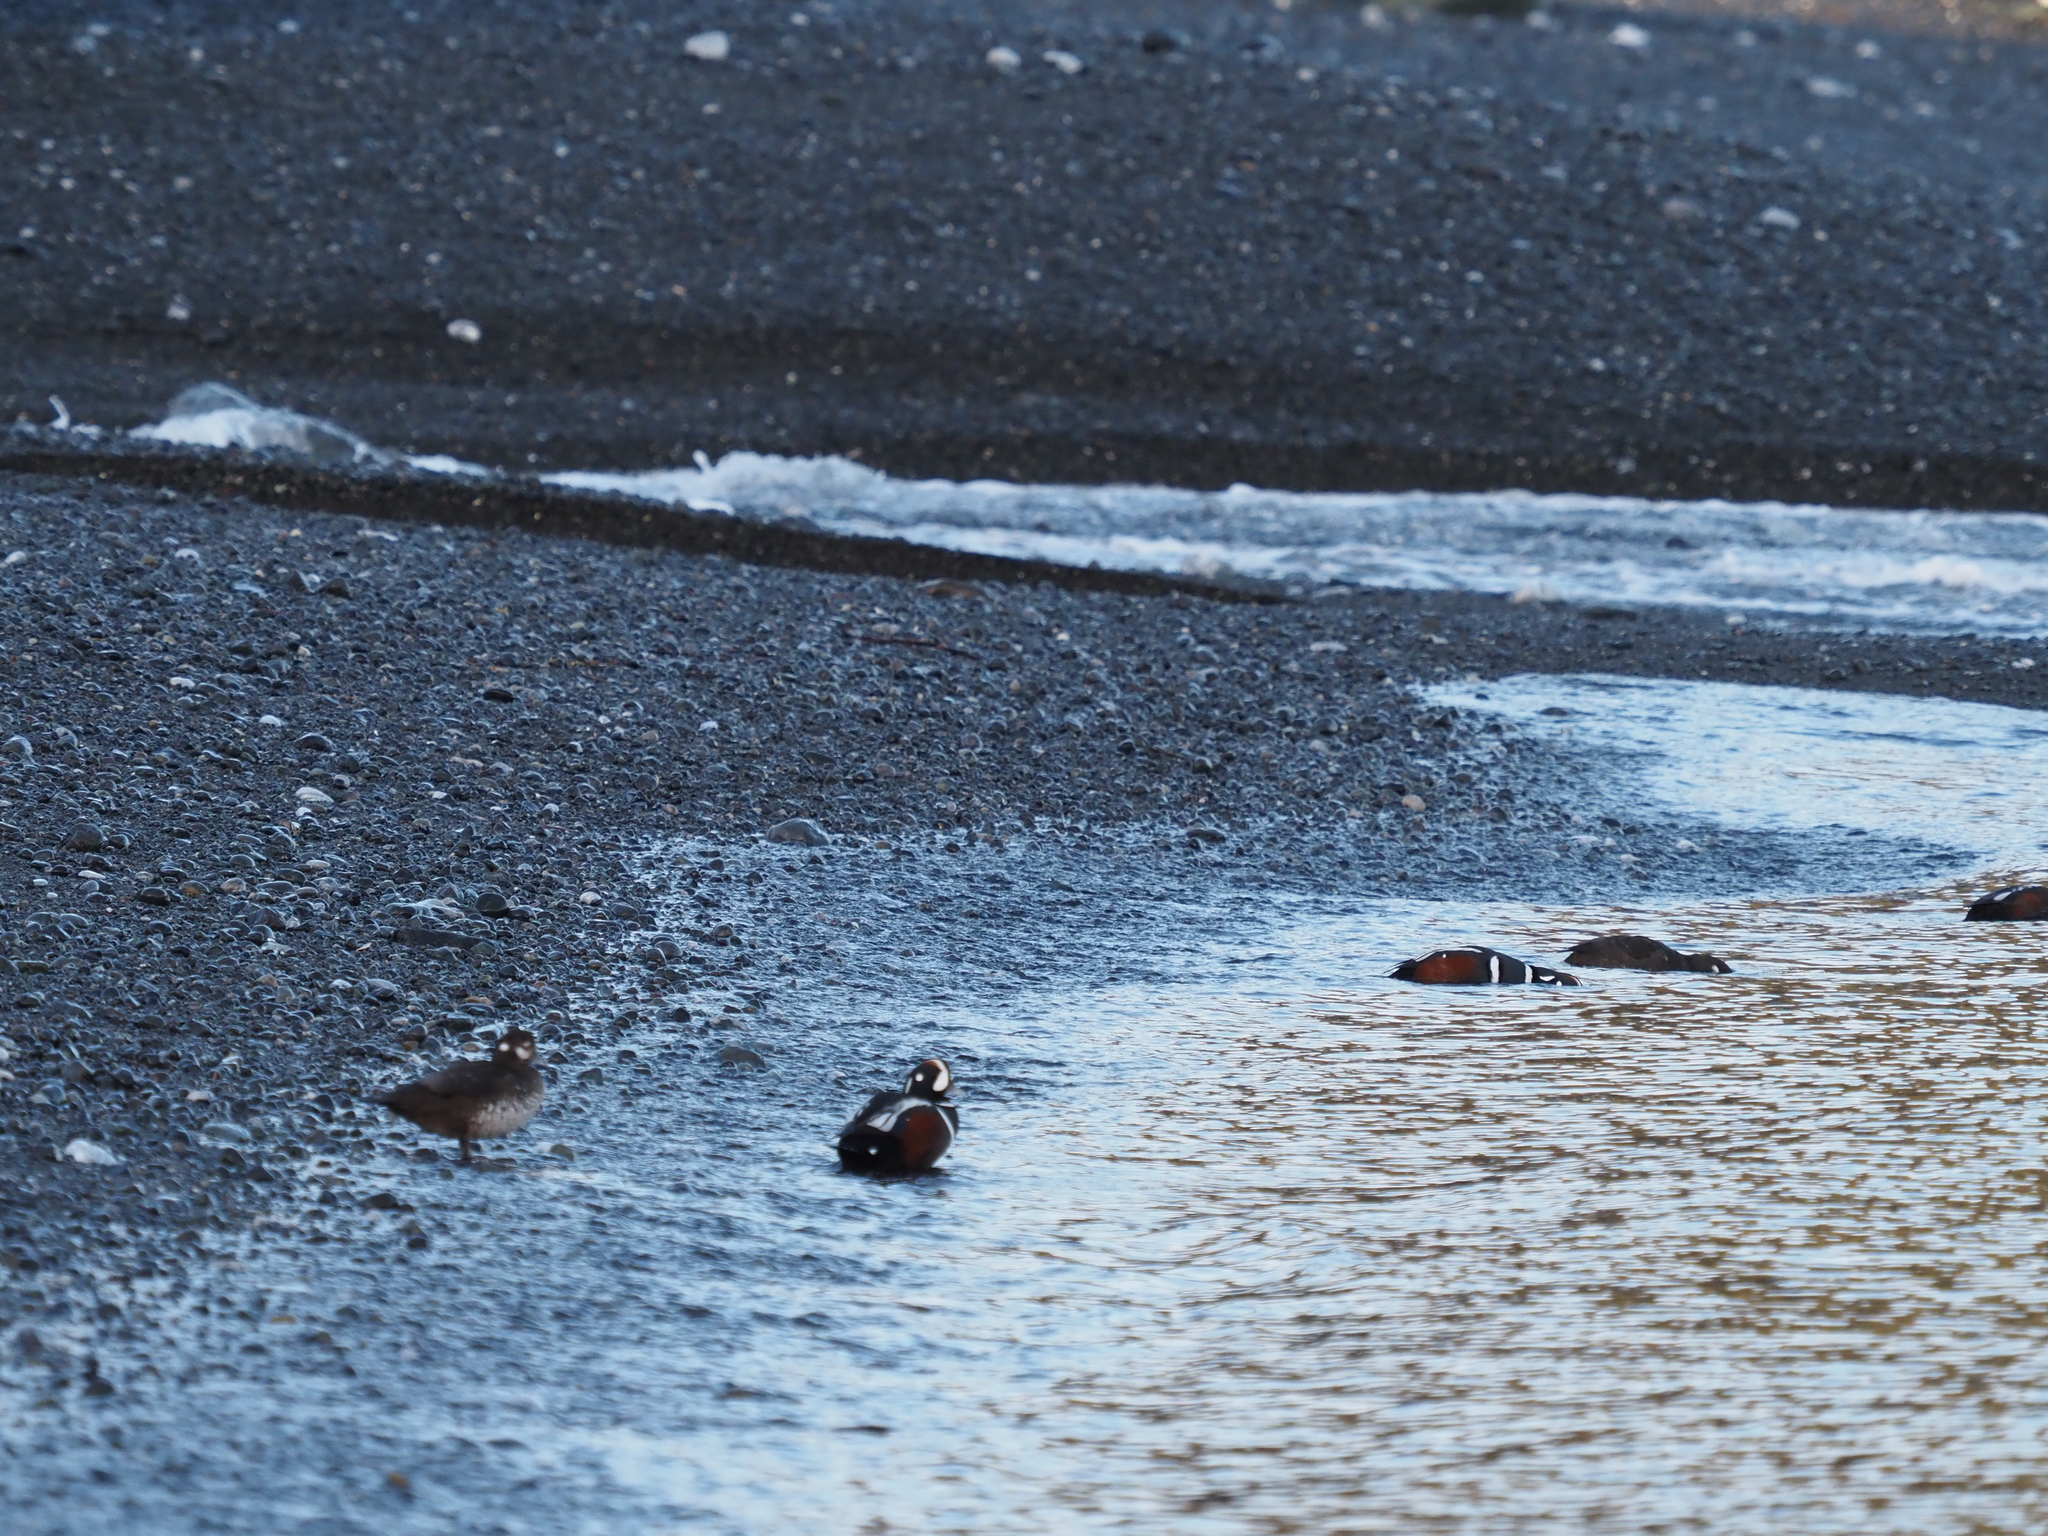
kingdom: Animalia
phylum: Chordata
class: Aves
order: Anseriformes
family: Anatidae
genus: Histrionicus
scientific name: Histrionicus histrionicus
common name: Harlequin duck
